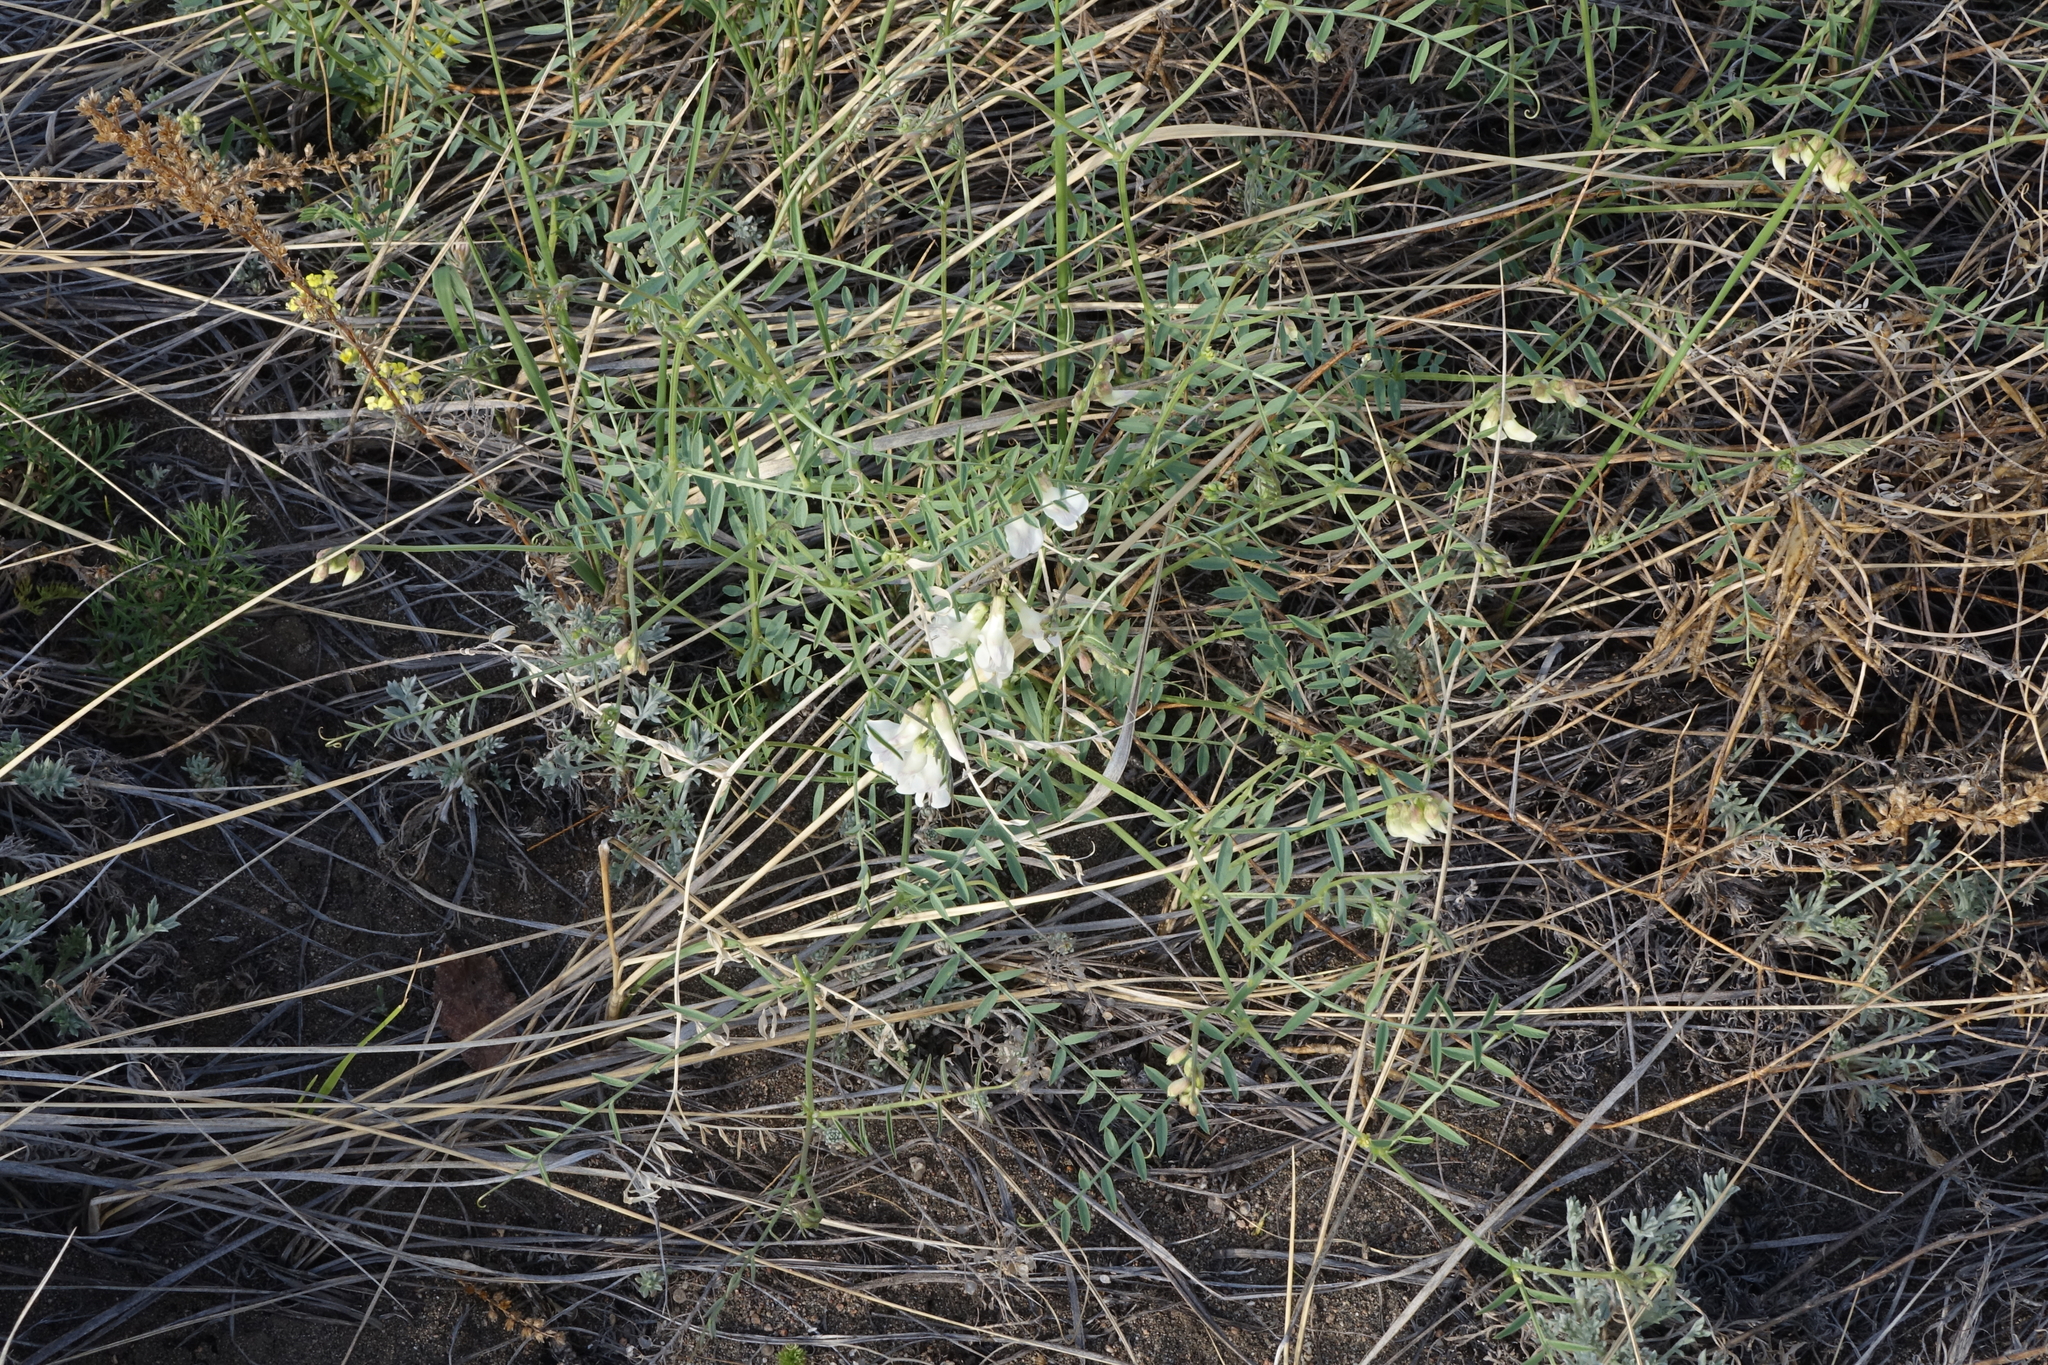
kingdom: Plantae
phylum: Tracheophyta
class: Magnoliopsida
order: Fabales
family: Fabaceae
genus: Vicia
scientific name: Vicia costata
